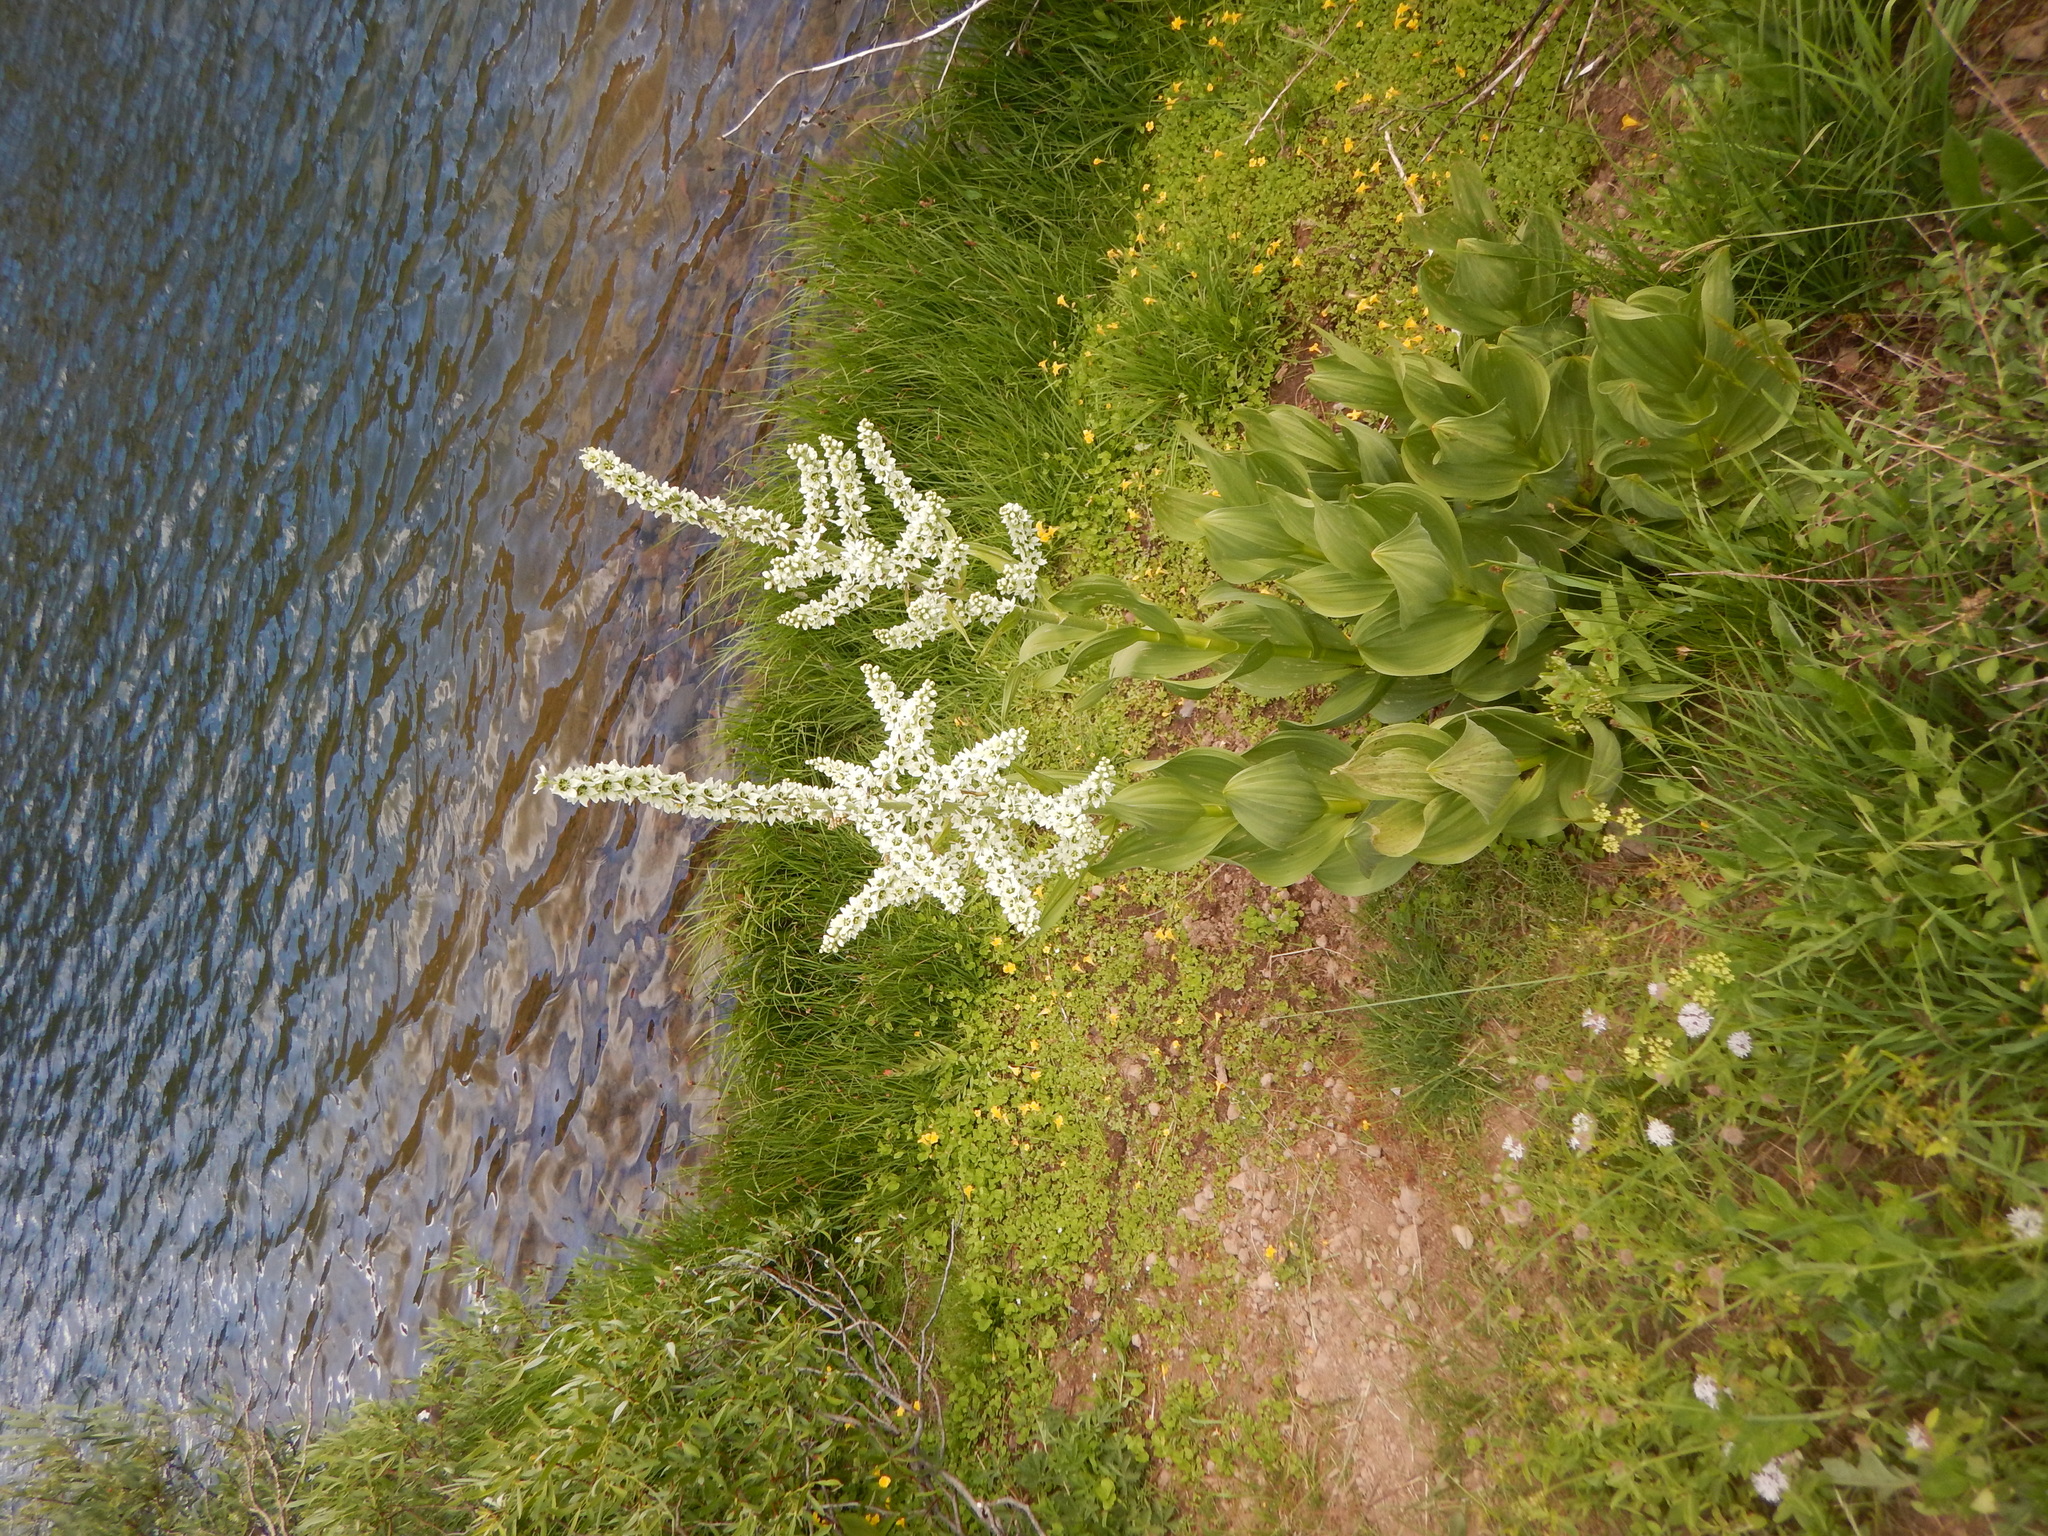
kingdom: Plantae
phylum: Tracheophyta
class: Liliopsida
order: Liliales
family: Melanthiaceae
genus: Veratrum
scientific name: Veratrum californicum
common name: California veratrum
